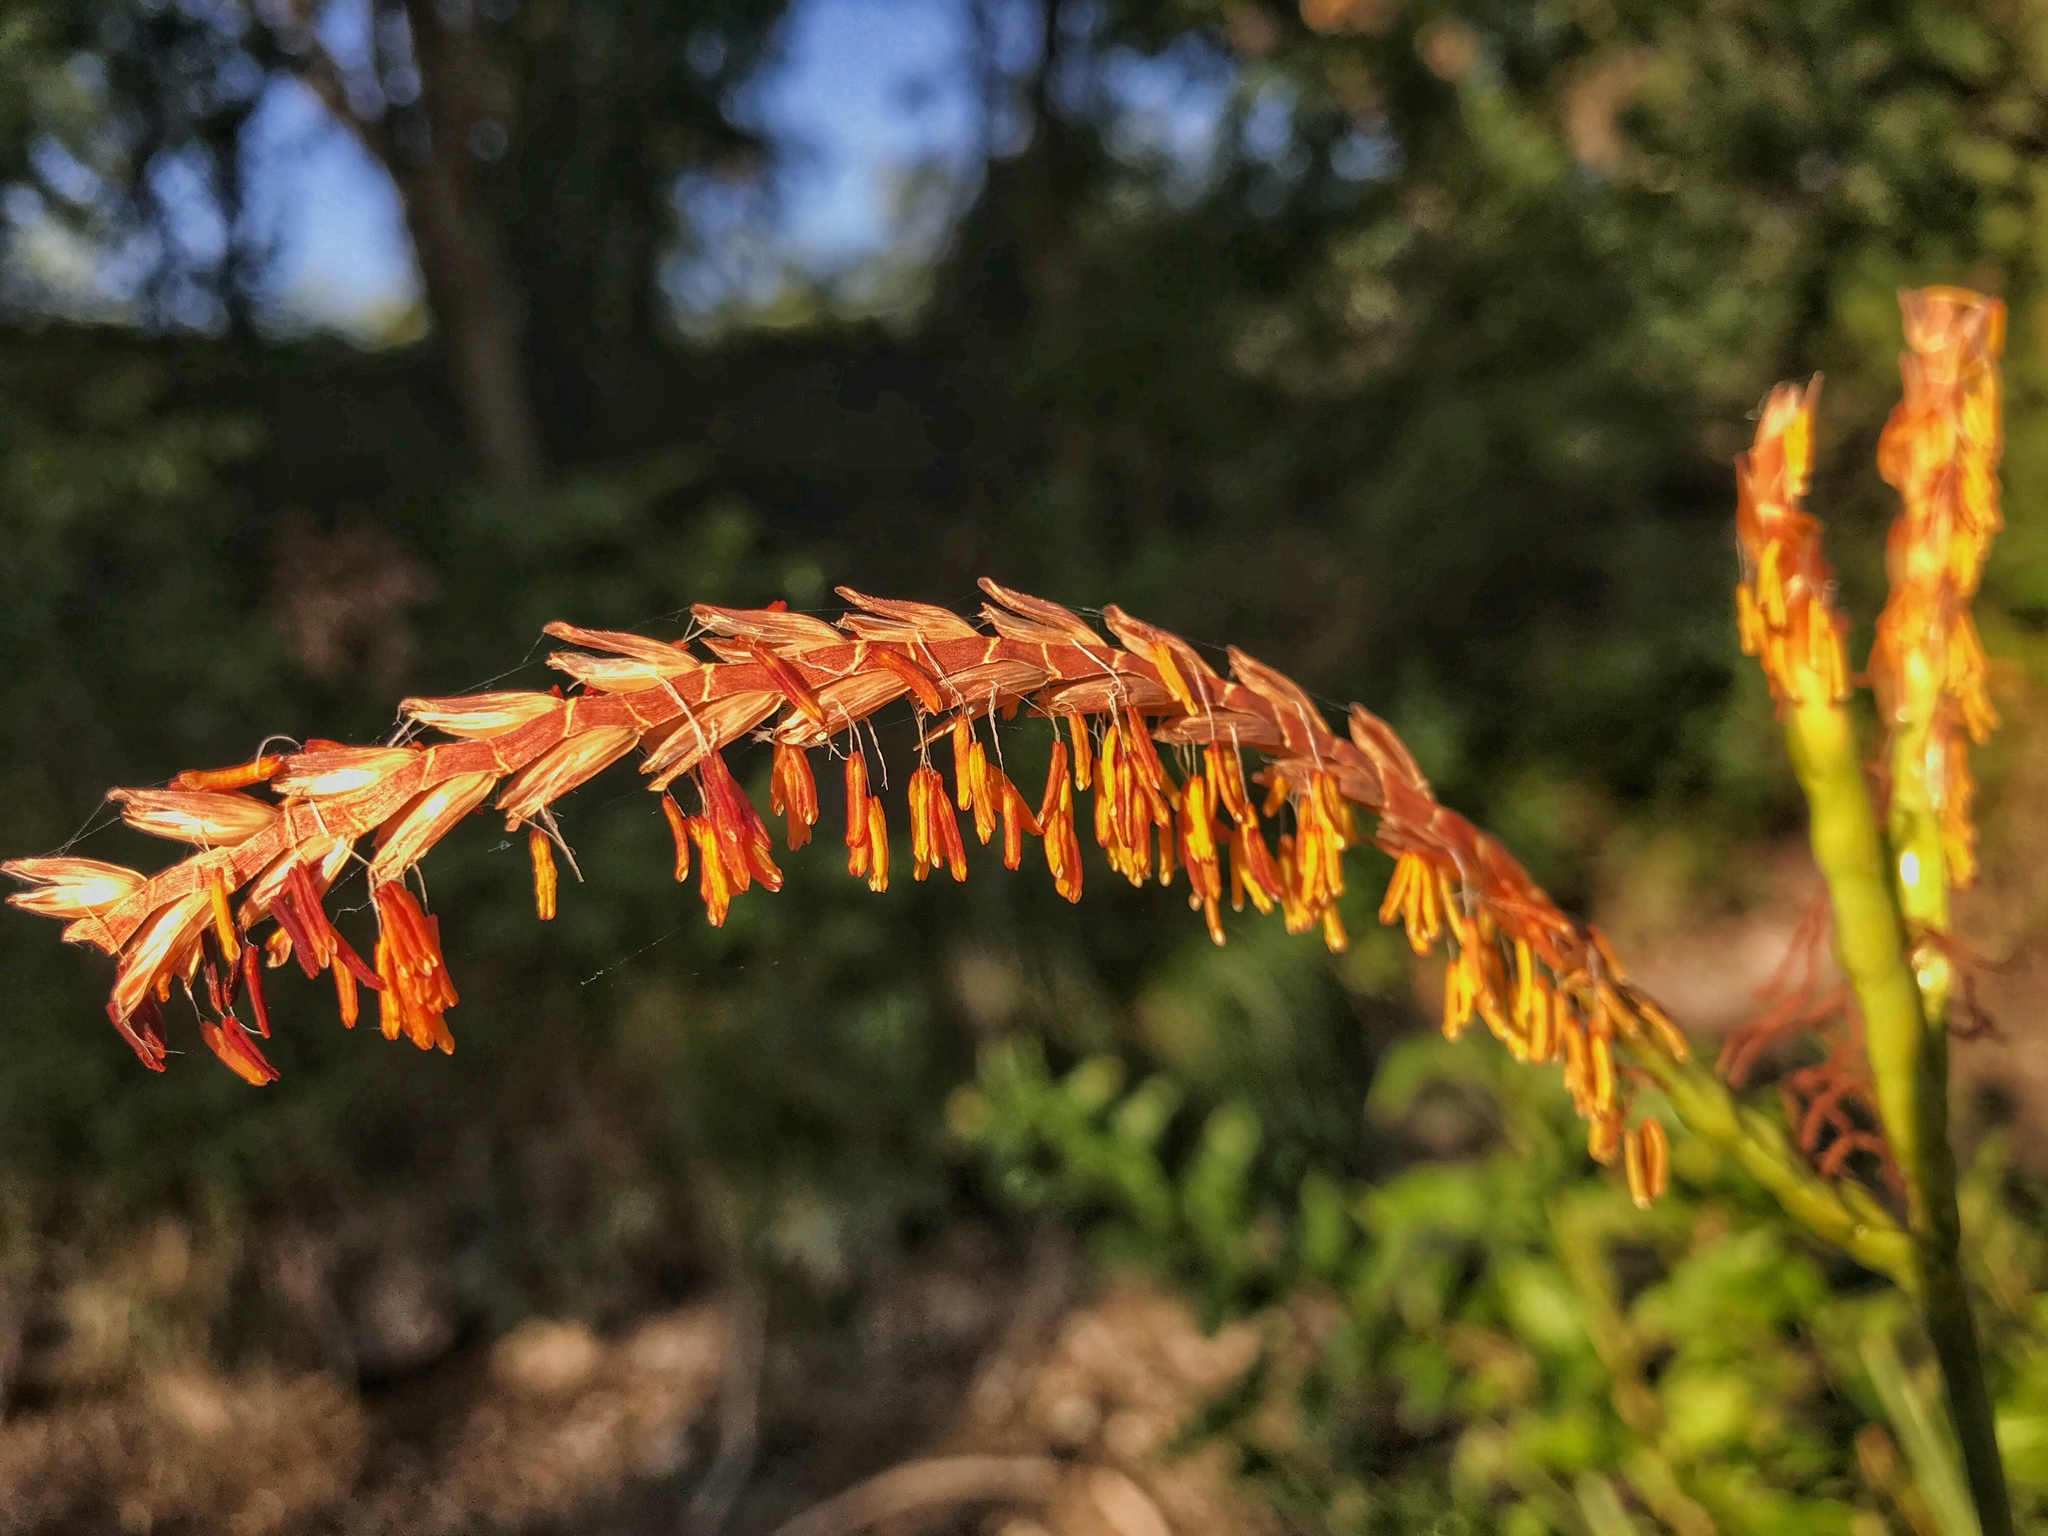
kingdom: Plantae
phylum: Tracheophyta
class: Liliopsida
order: Poales
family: Poaceae
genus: Tripsacum
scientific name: Tripsacum dactyloides
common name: Buffalo-grass
